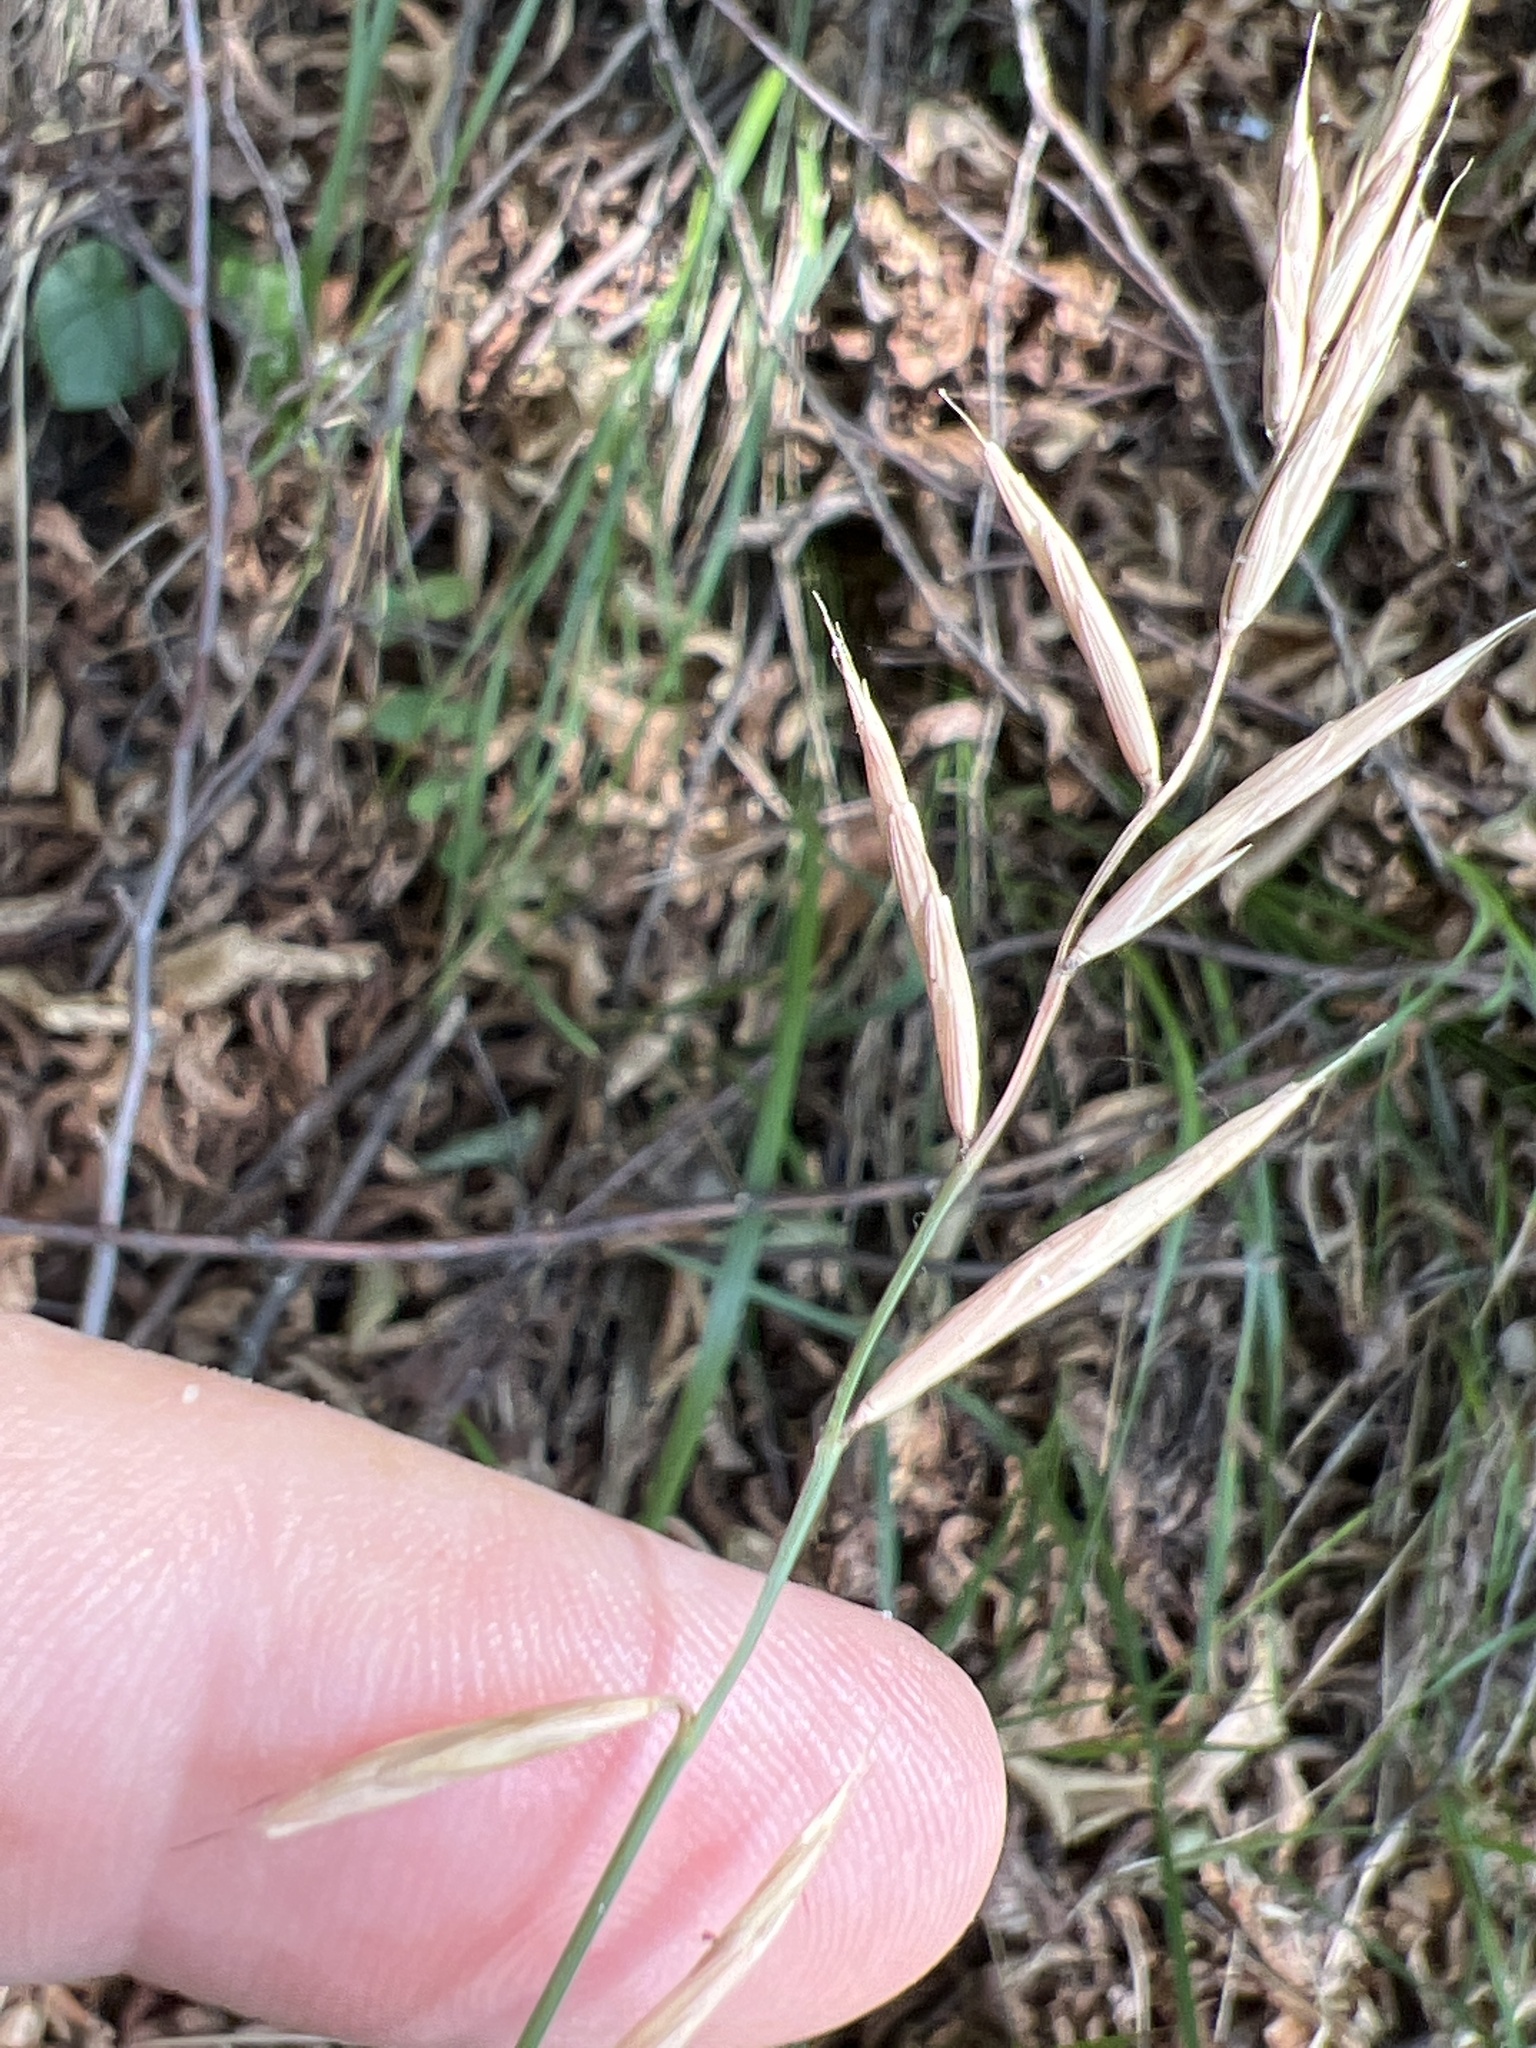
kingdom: Plantae
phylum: Tracheophyta
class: Liliopsida
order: Poales
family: Poaceae
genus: Brachypodium
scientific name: Brachypodium pinnatum
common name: Tor grass
